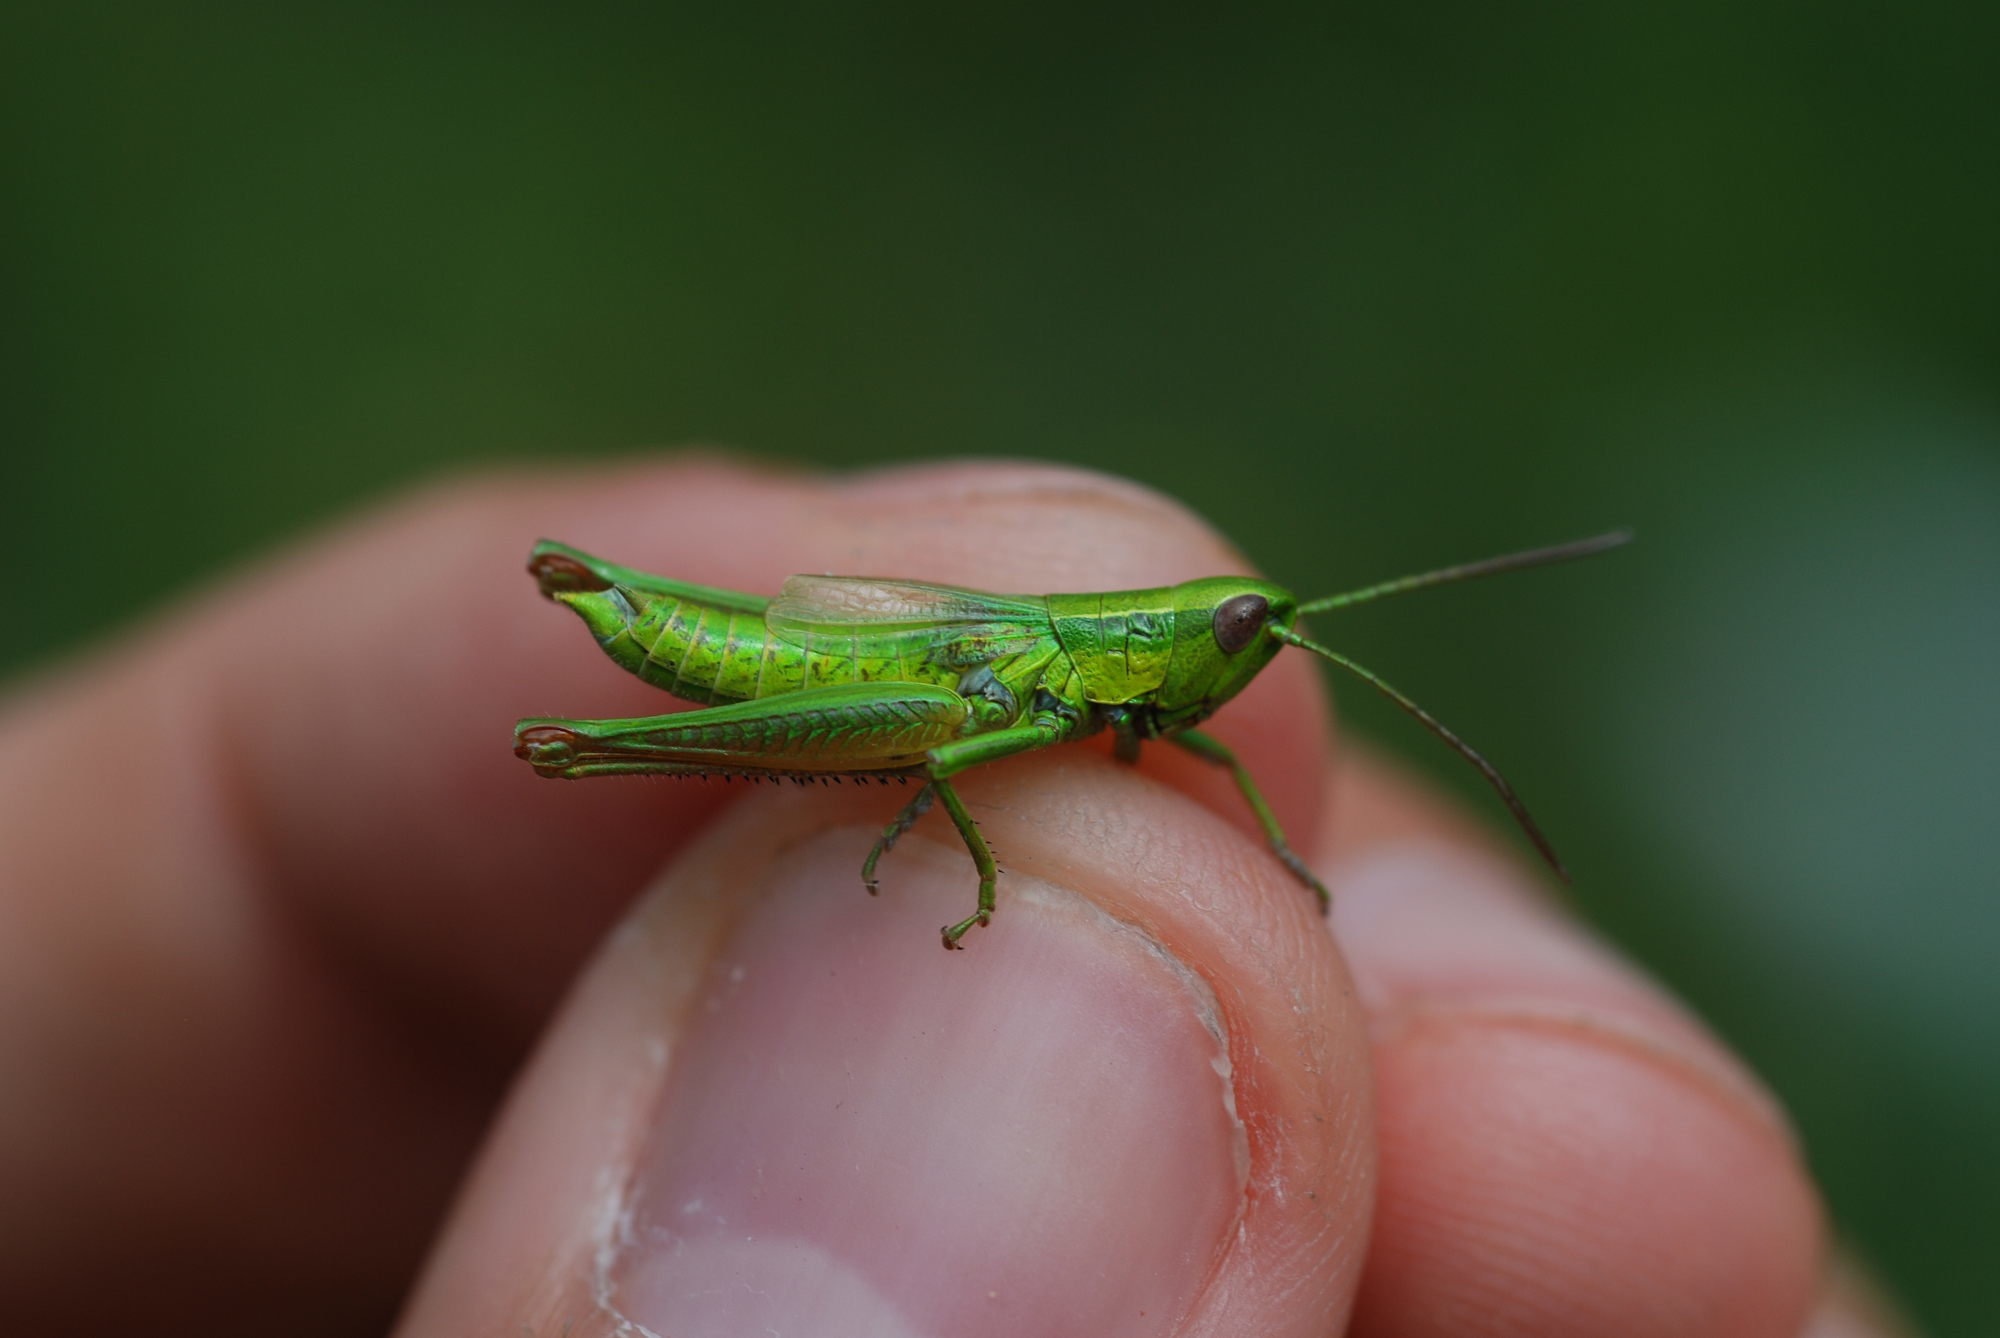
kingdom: Animalia
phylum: Arthropoda
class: Insecta
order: Orthoptera
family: Acrididae
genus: Euthystira
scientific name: Euthystira brachyptera
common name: Small gold grasshopper
